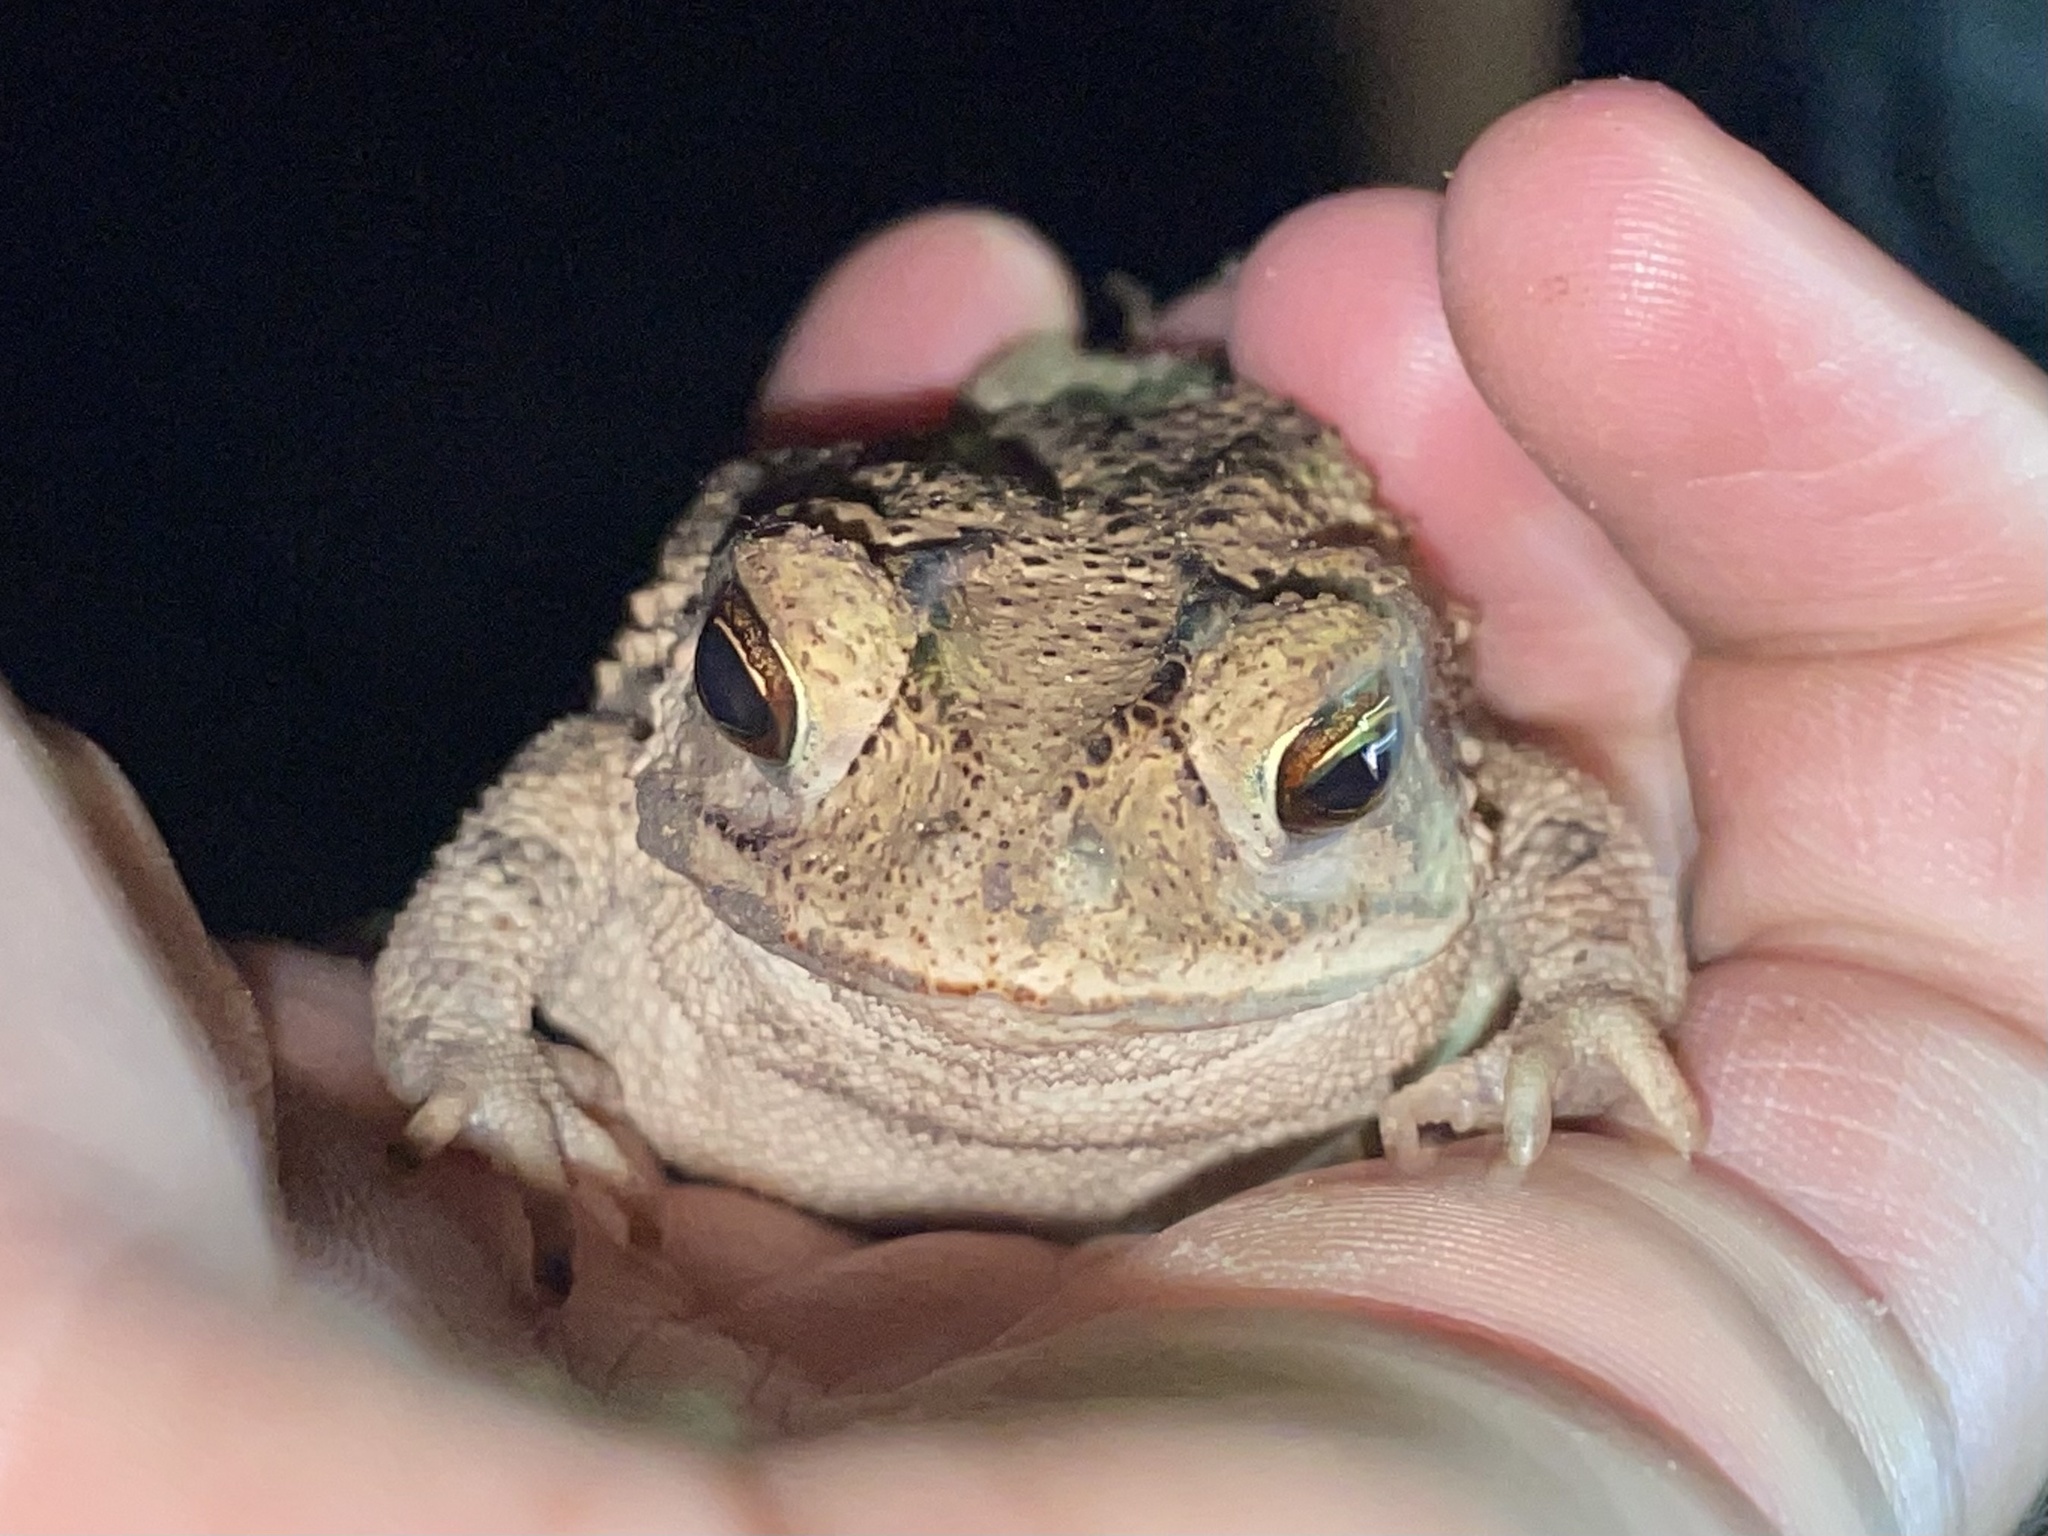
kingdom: Animalia
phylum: Chordata
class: Amphibia
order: Anura
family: Bufonidae
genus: Incilius
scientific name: Incilius nebulifer
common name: Gulf coast toad
